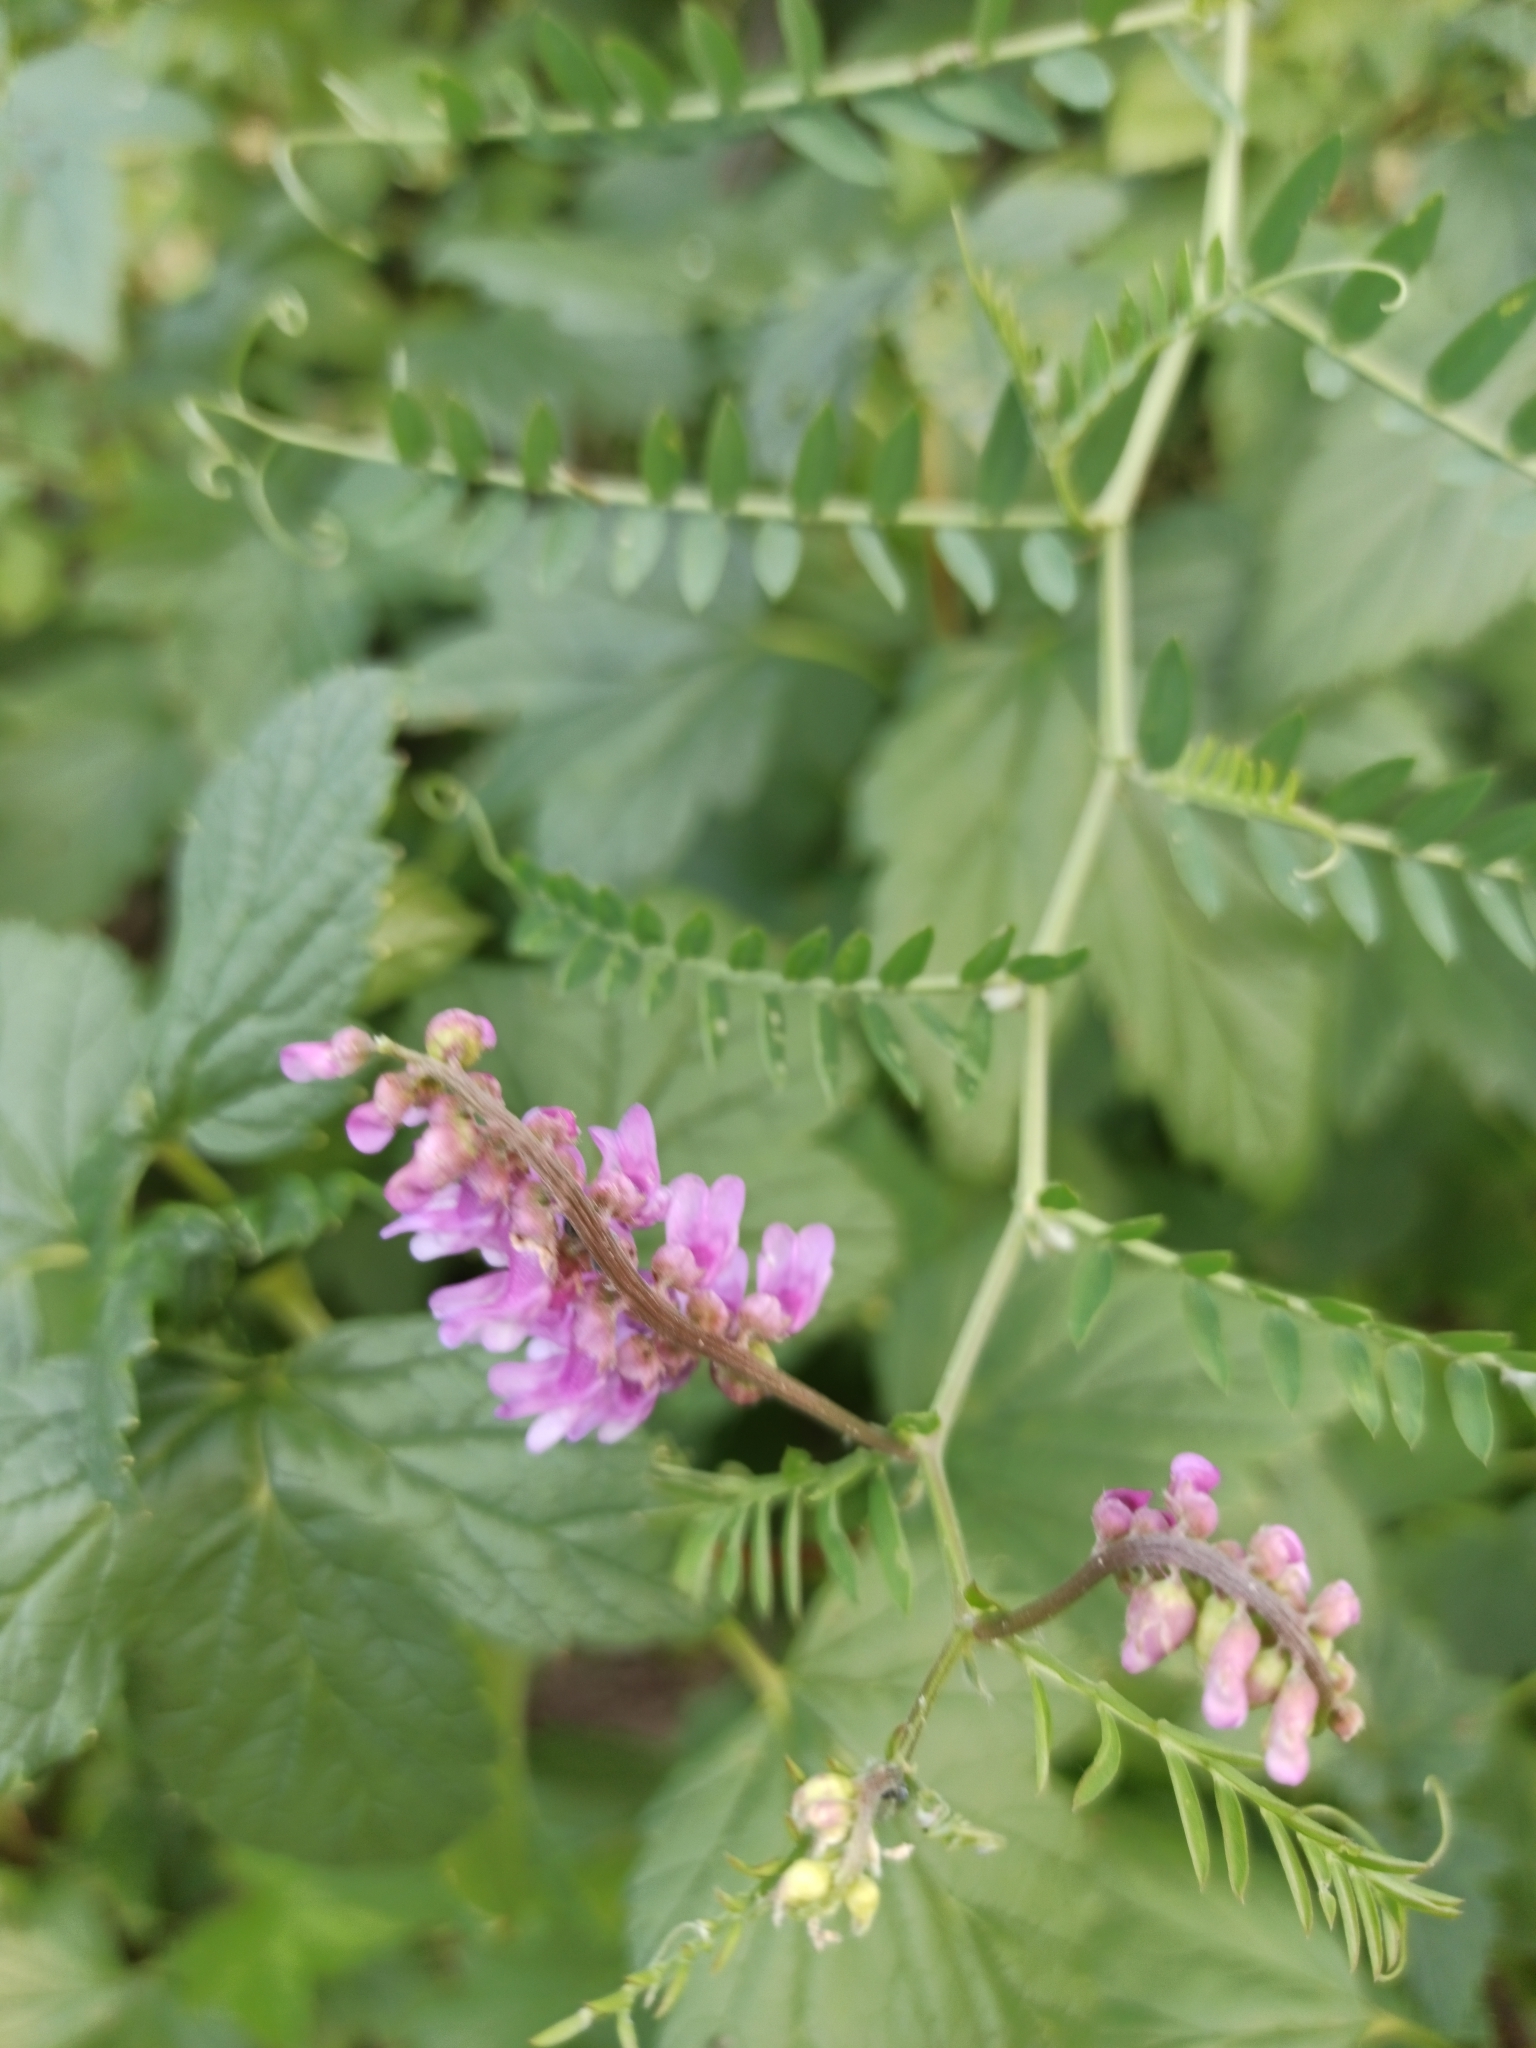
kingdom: Plantae
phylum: Tracheophyta
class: Magnoliopsida
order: Fabales
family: Fabaceae
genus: Vicia
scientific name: Vicia cracca
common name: Bird vetch
